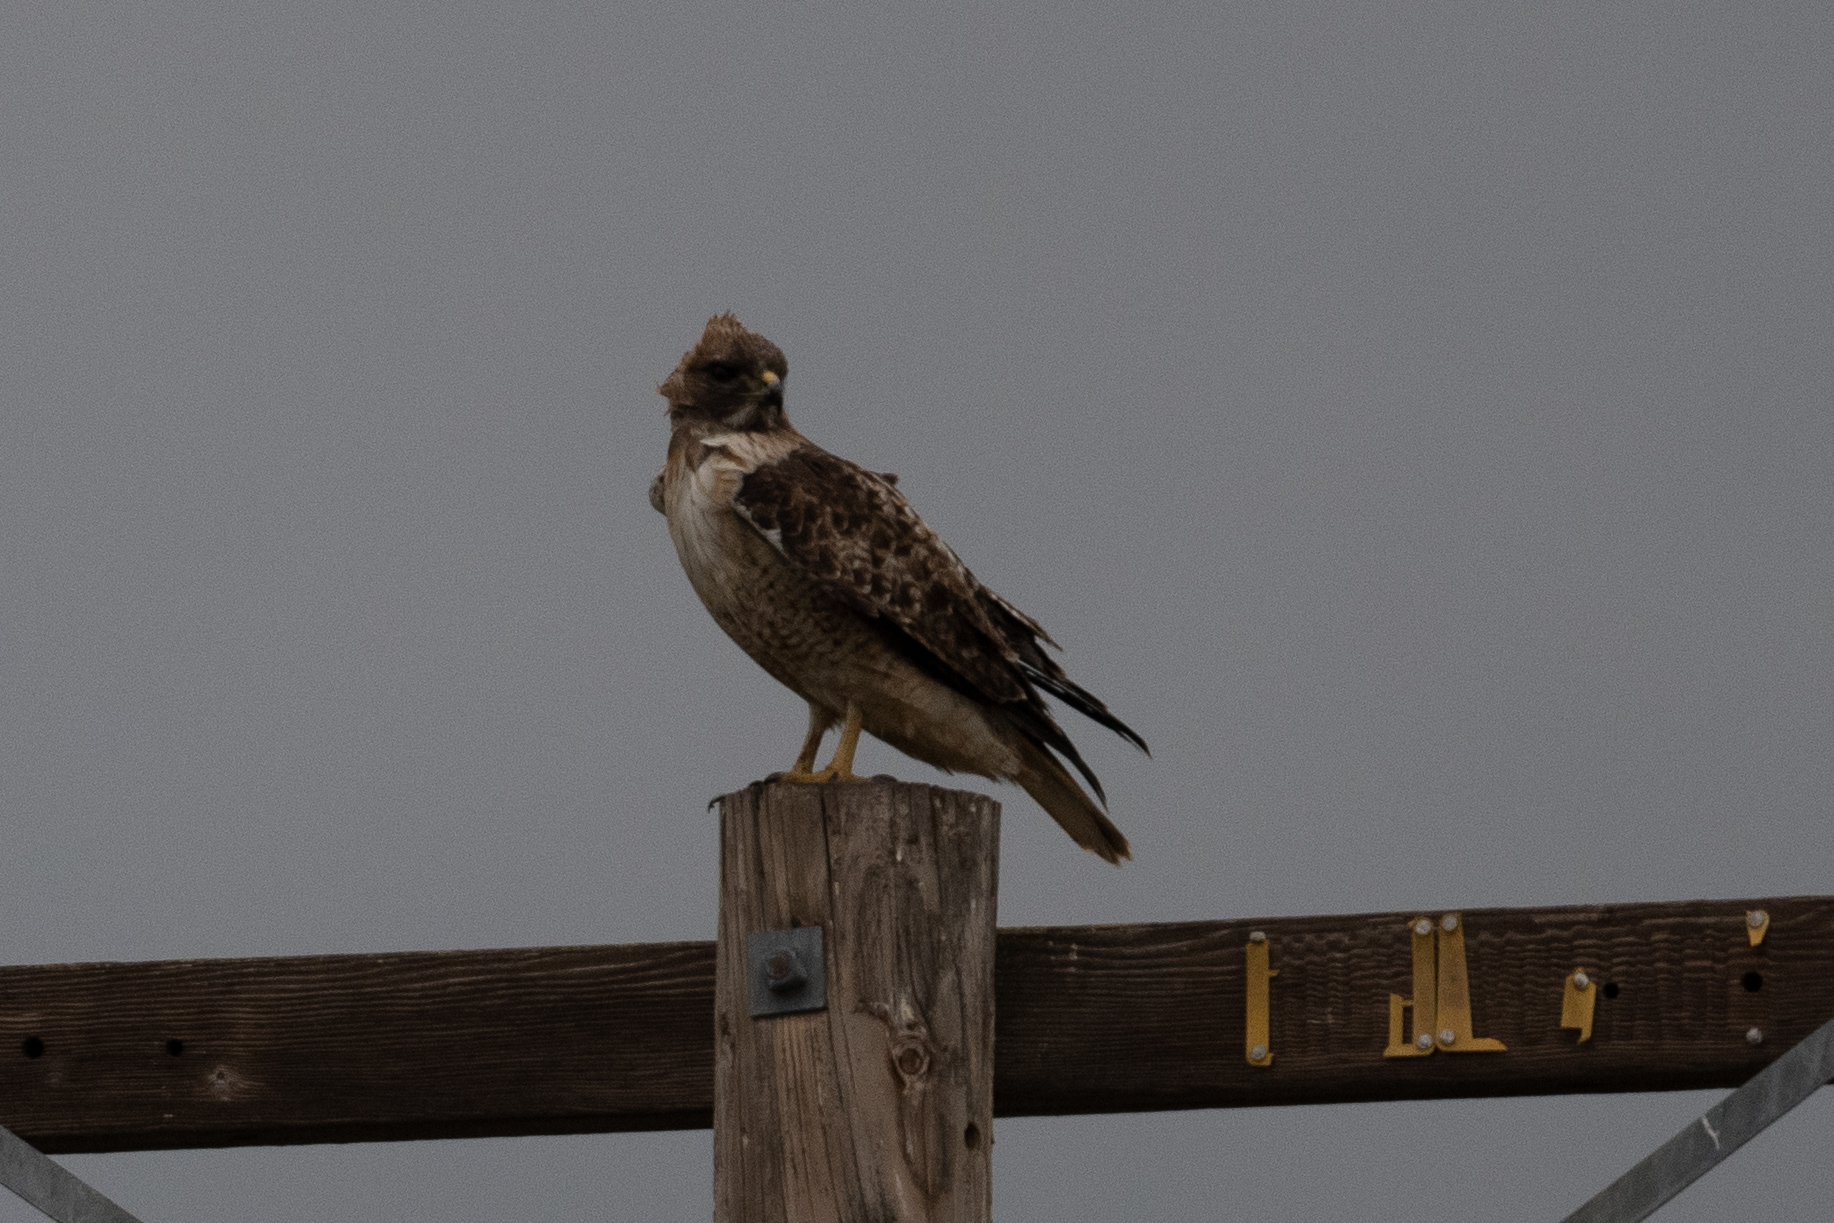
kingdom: Animalia
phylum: Chordata
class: Aves
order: Accipitriformes
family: Accipitridae
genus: Buteo
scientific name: Buteo jamaicensis
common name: Red-tailed hawk
